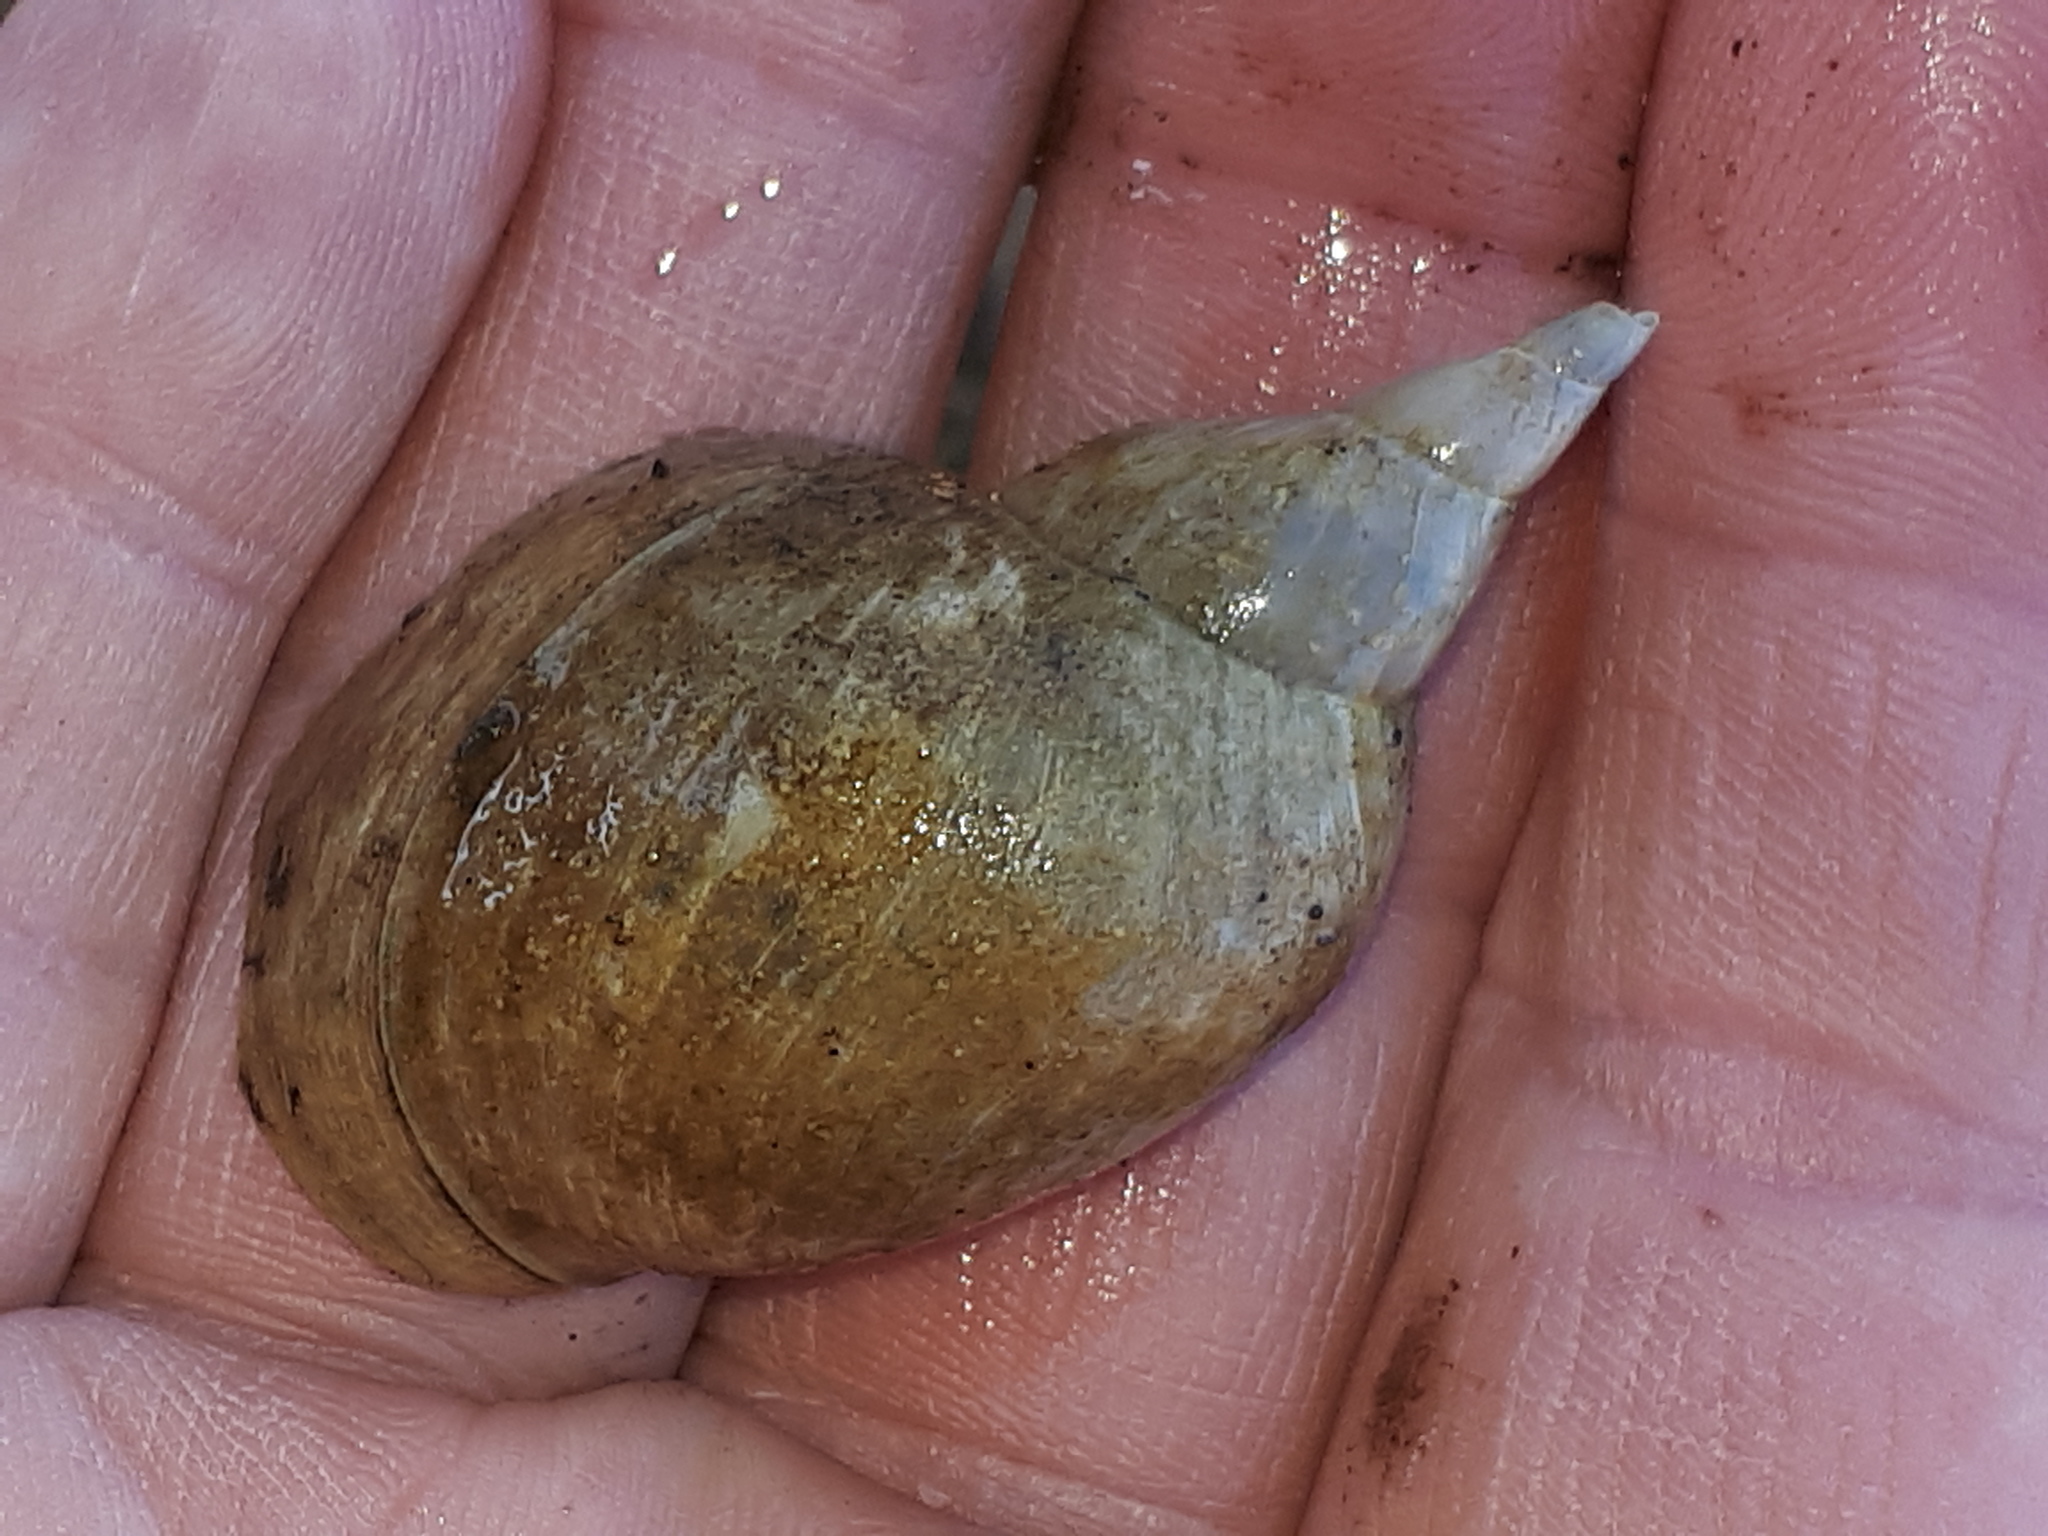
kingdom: Animalia
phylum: Mollusca
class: Gastropoda
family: Lymnaeidae
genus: Lymnaea
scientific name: Lymnaea stagnalis
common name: Great pond snail
